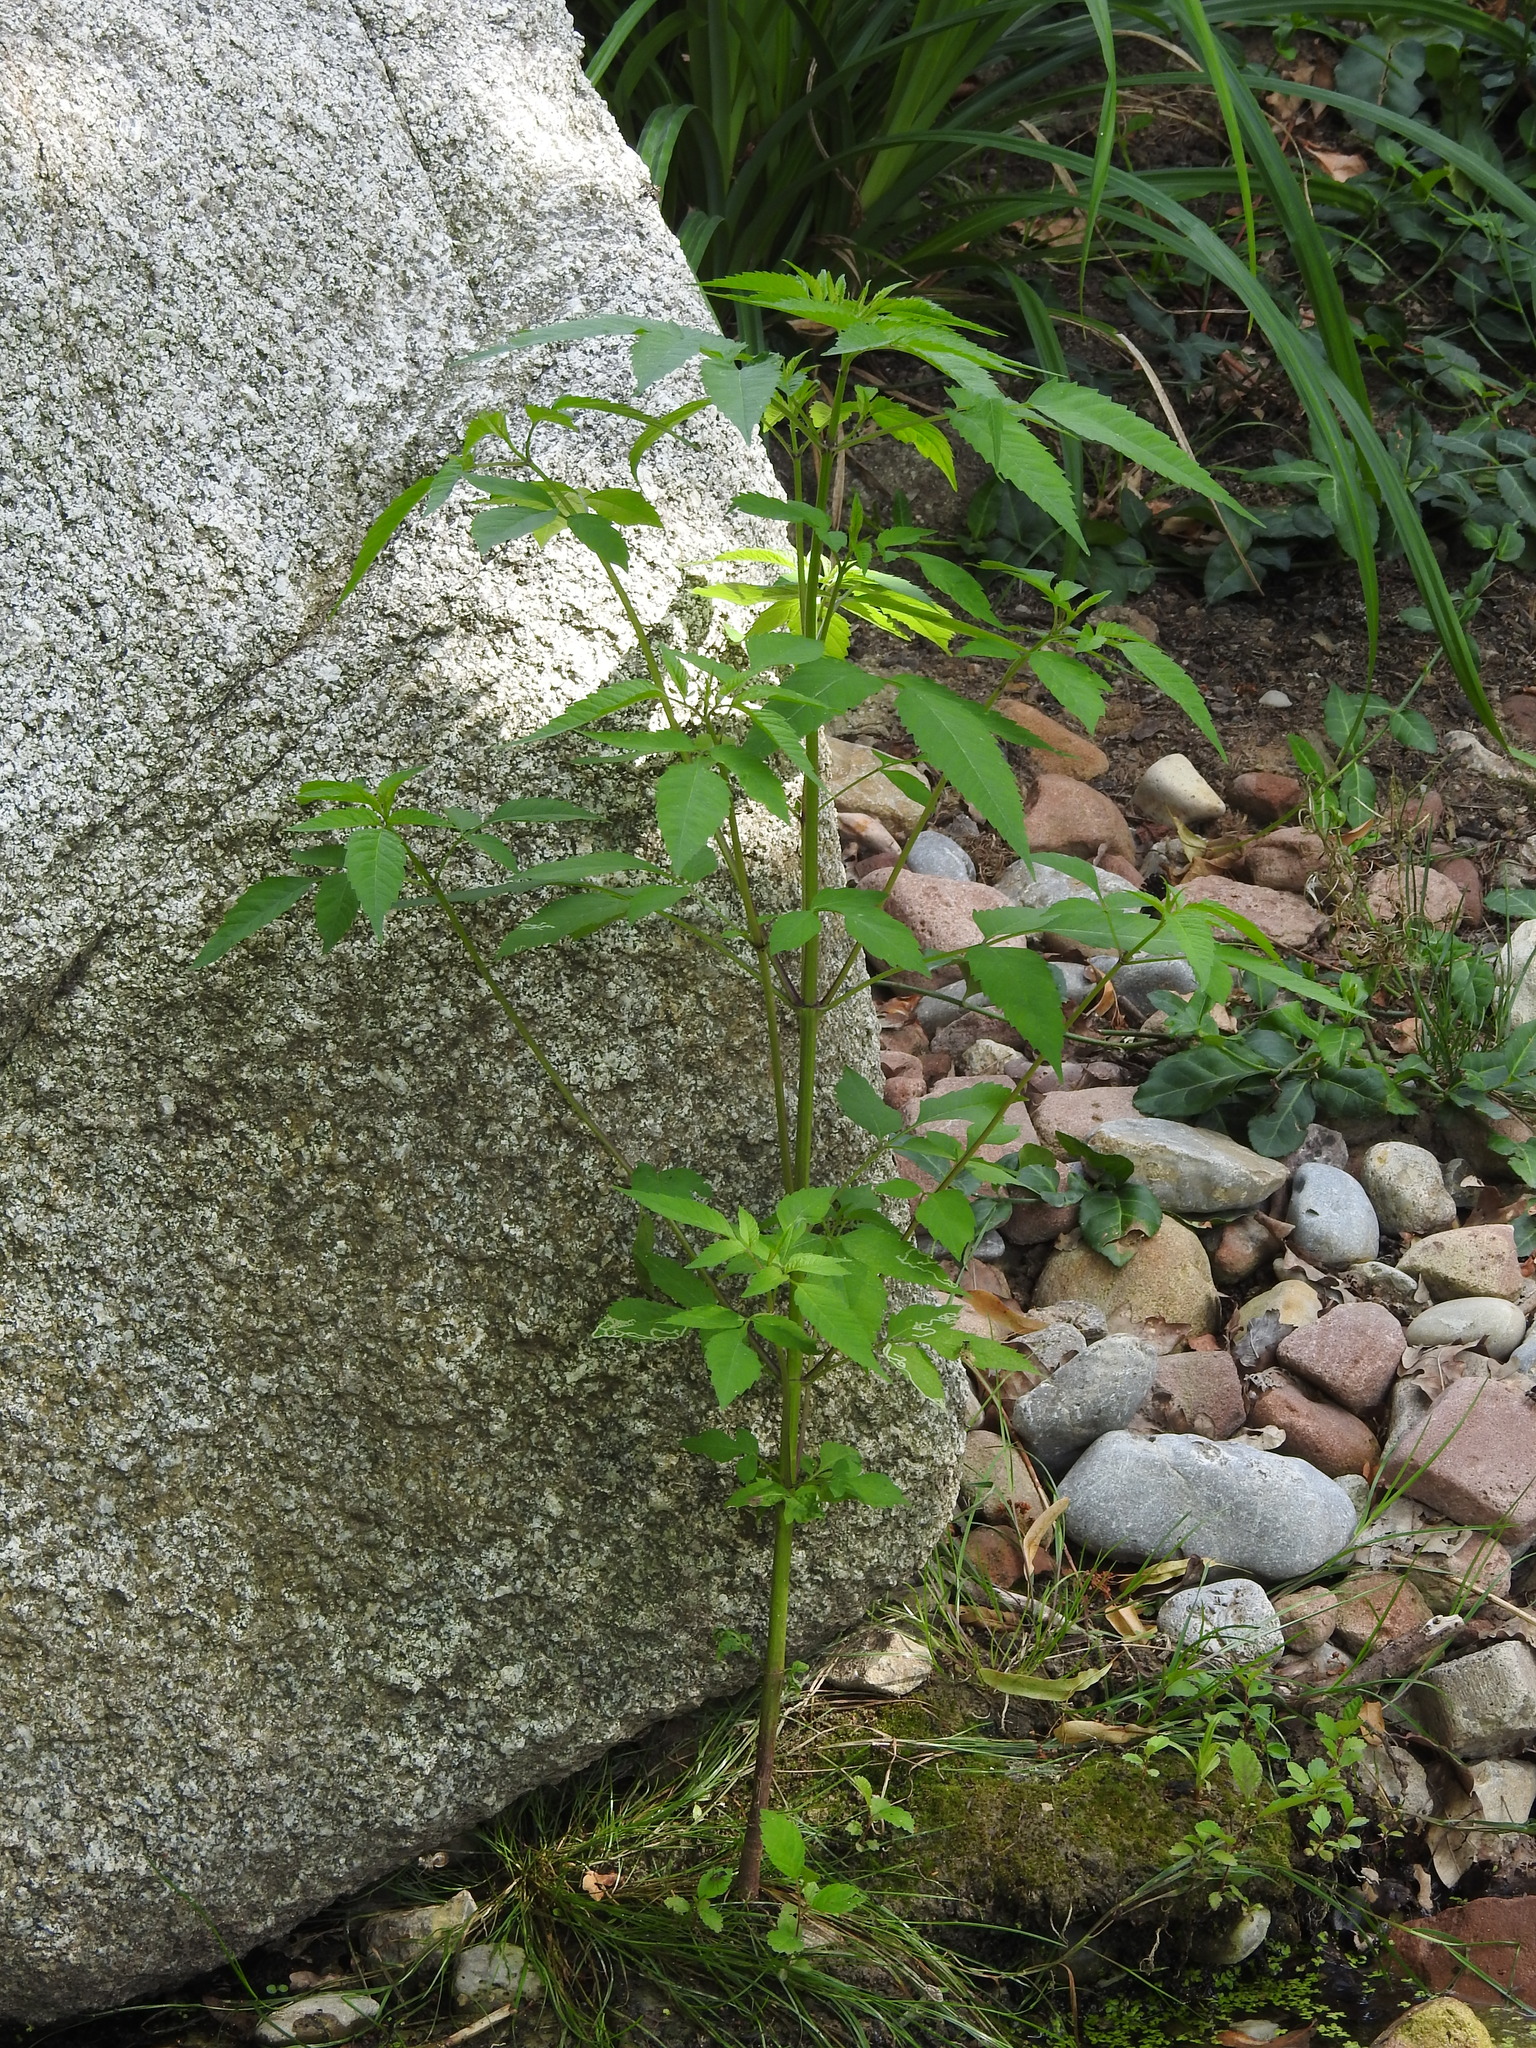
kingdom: Plantae
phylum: Tracheophyta
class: Magnoliopsida
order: Asterales
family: Asteraceae
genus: Bidens
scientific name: Bidens frondosa
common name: Beggarticks
